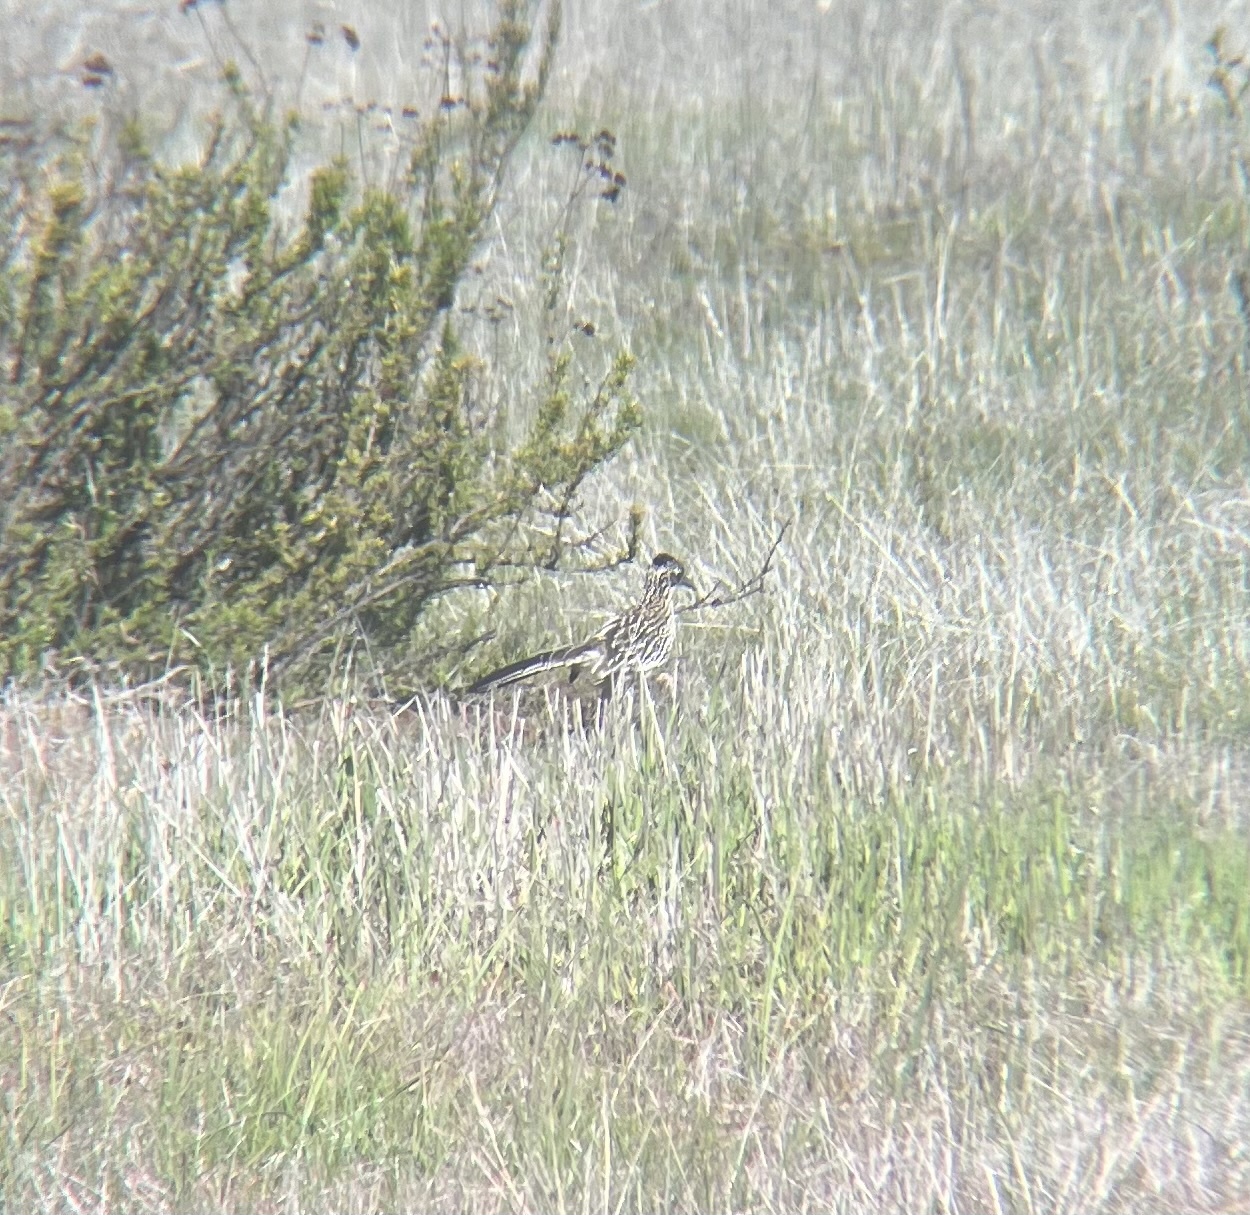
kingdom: Animalia
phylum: Chordata
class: Aves
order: Cuculiformes
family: Cuculidae
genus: Geococcyx
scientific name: Geococcyx californianus
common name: Greater roadrunner
